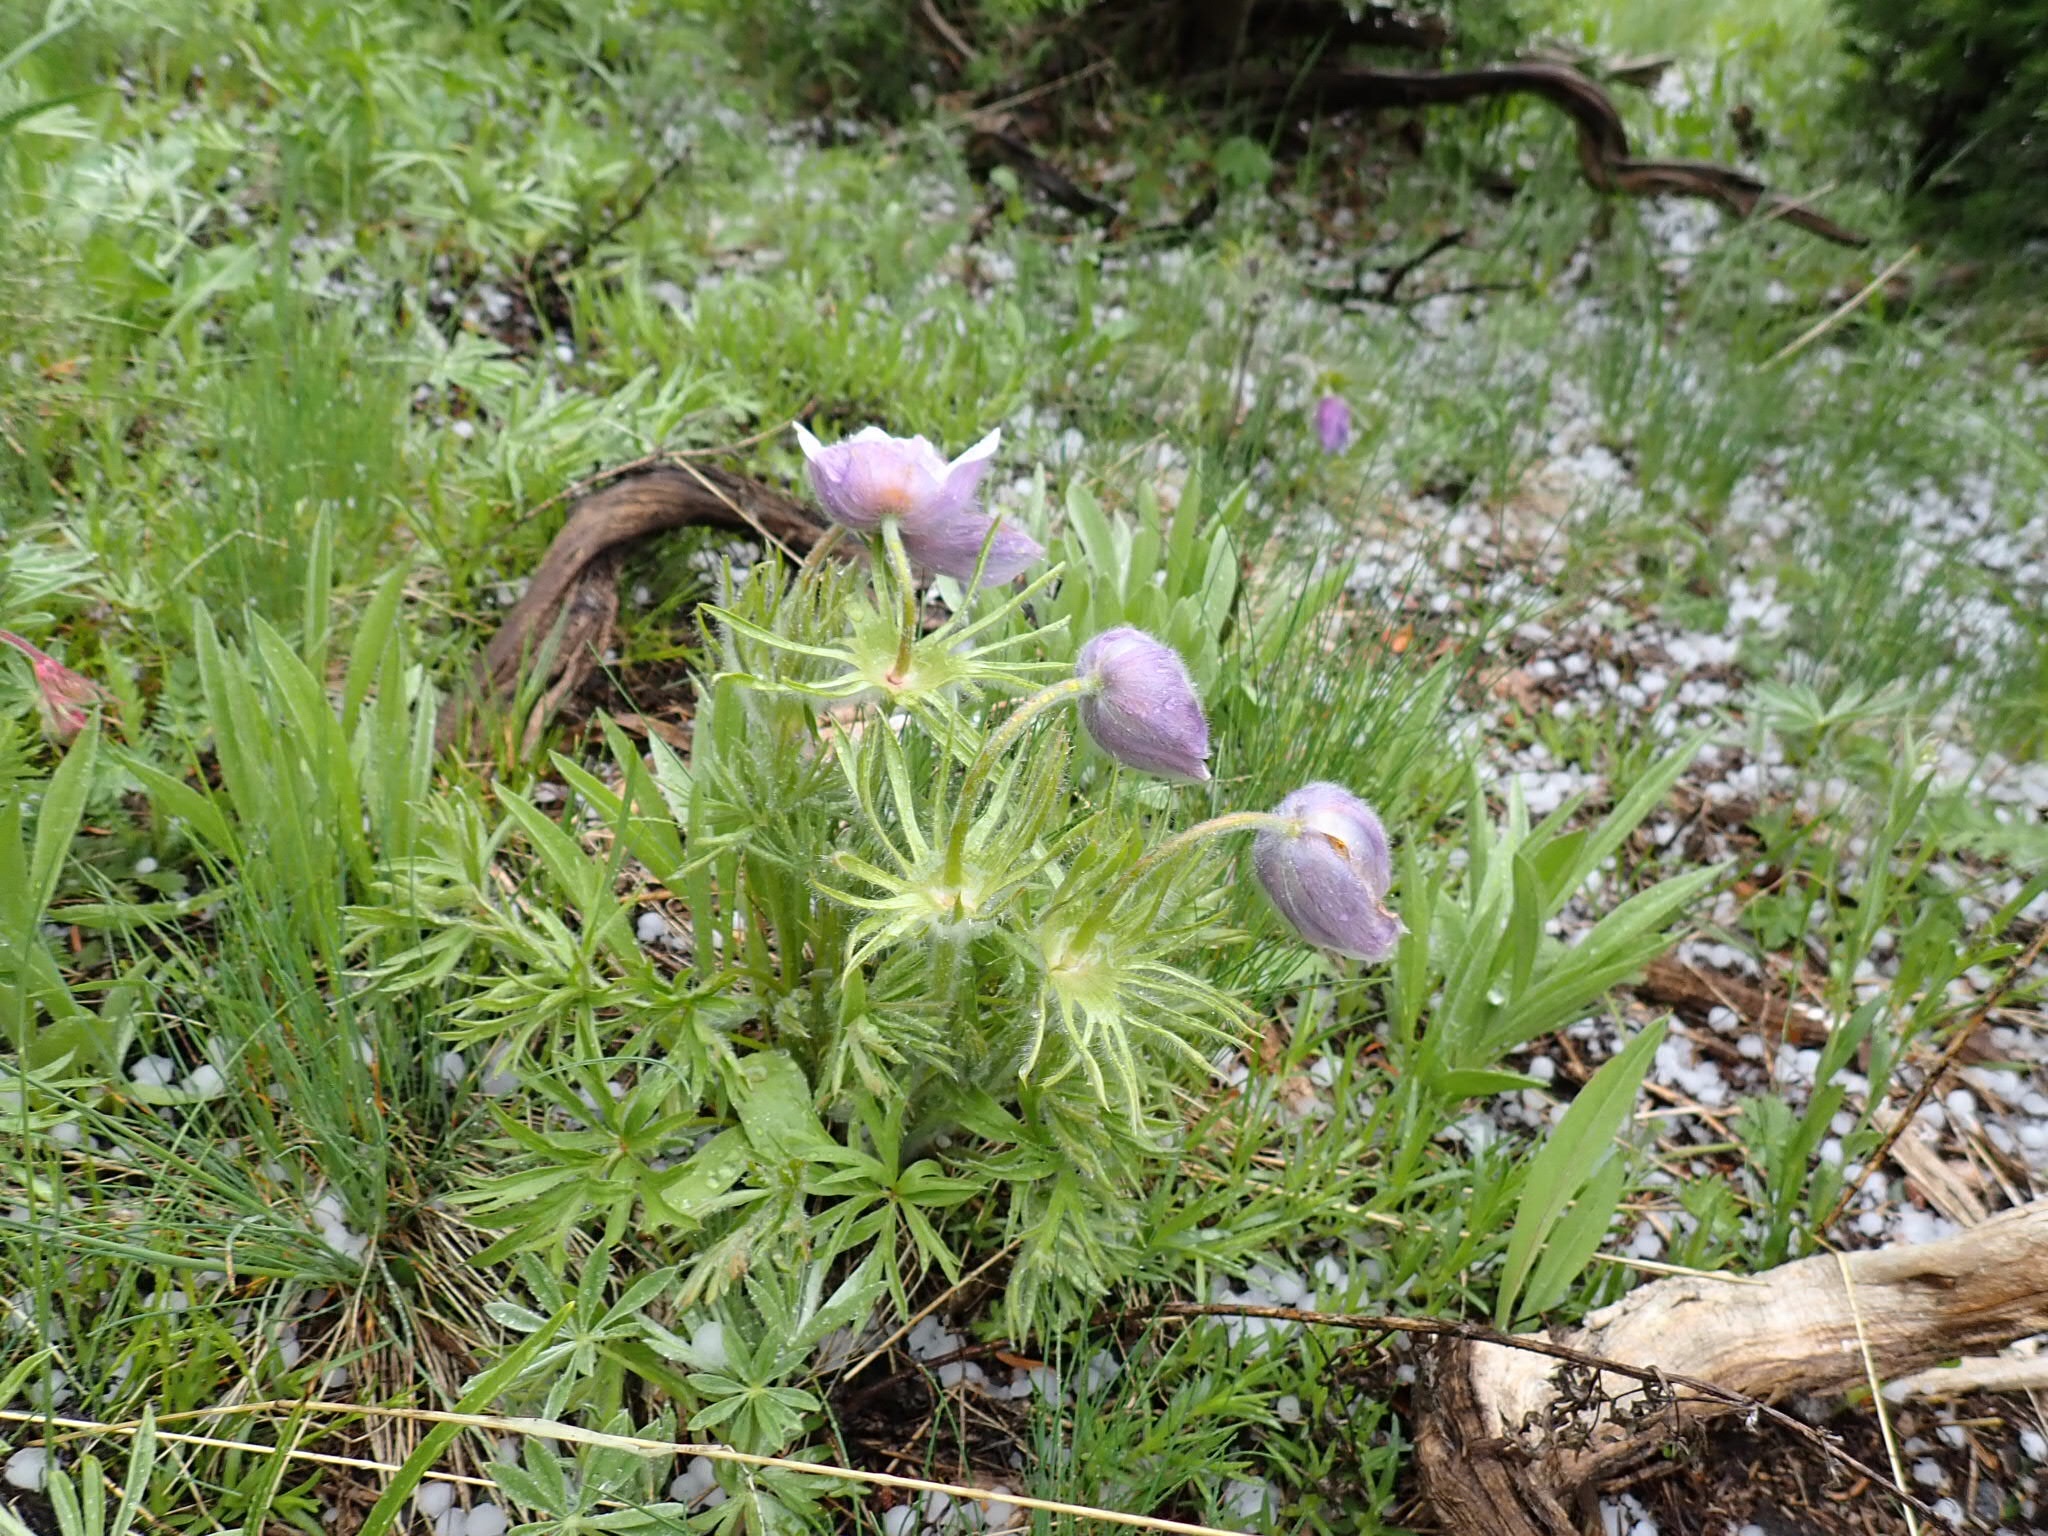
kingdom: Plantae
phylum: Tracheophyta
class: Magnoliopsida
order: Ranunculales
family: Ranunculaceae
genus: Pulsatilla
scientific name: Pulsatilla nuttalliana
